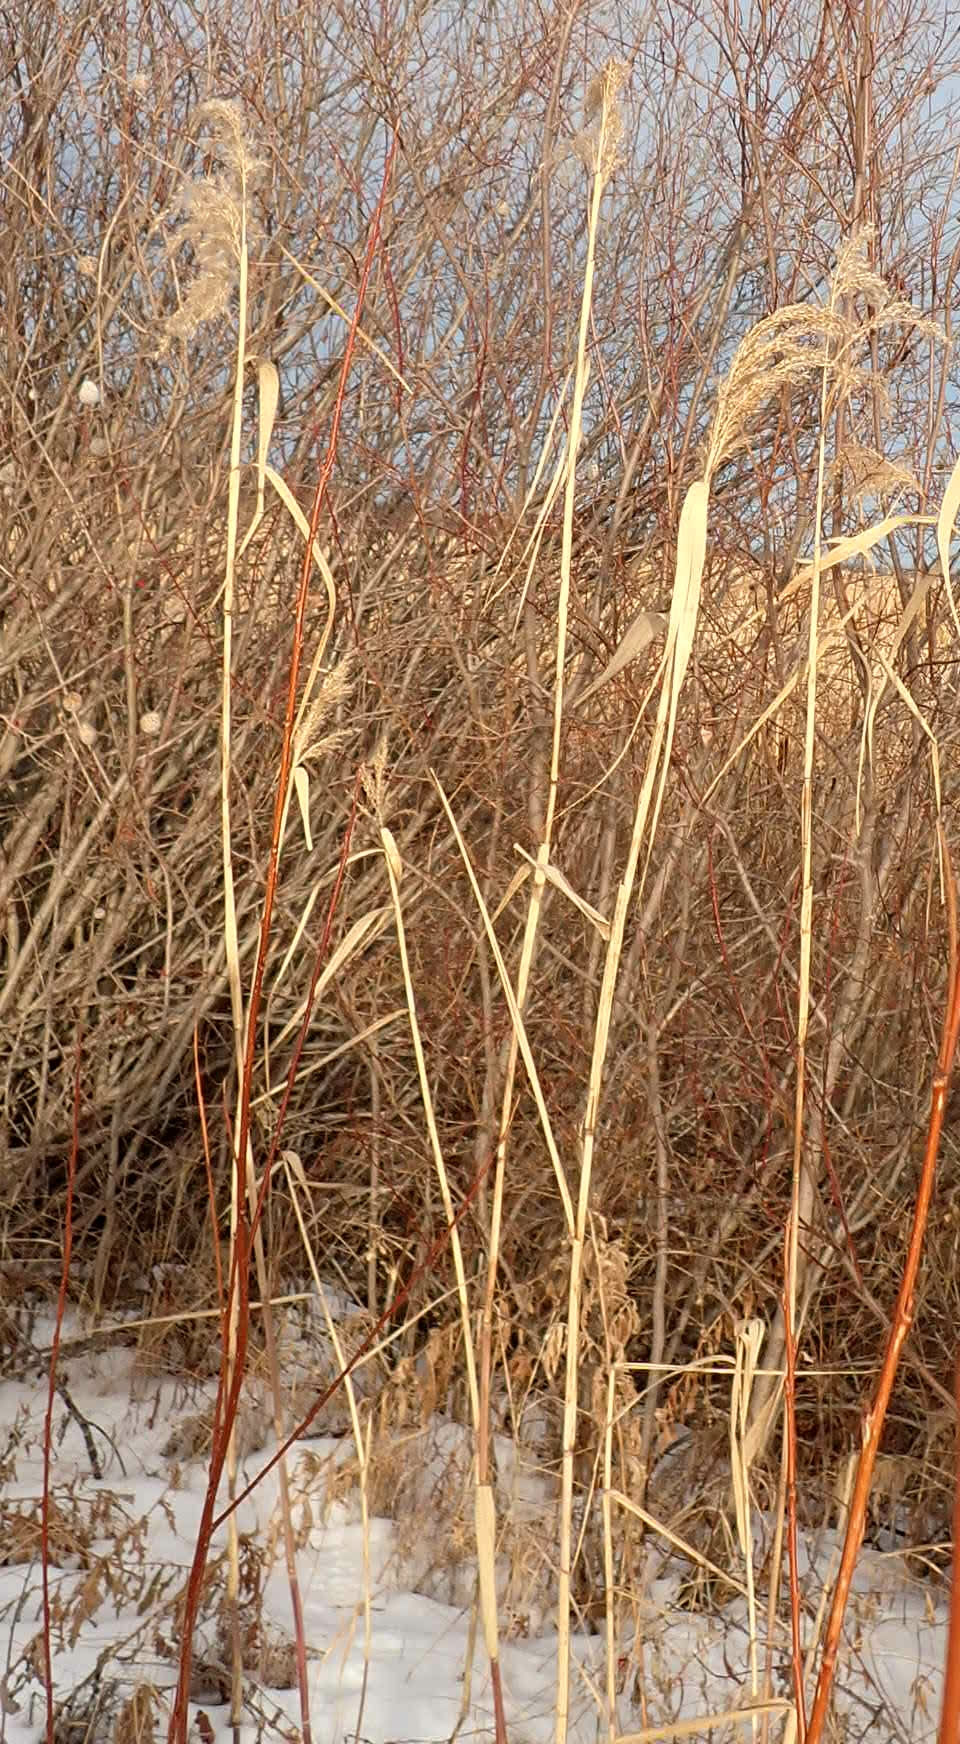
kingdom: Plantae
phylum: Tracheophyta
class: Liliopsida
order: Poales
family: Poaceae
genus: Phragmites
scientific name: Phragmites australis
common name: Common reed
